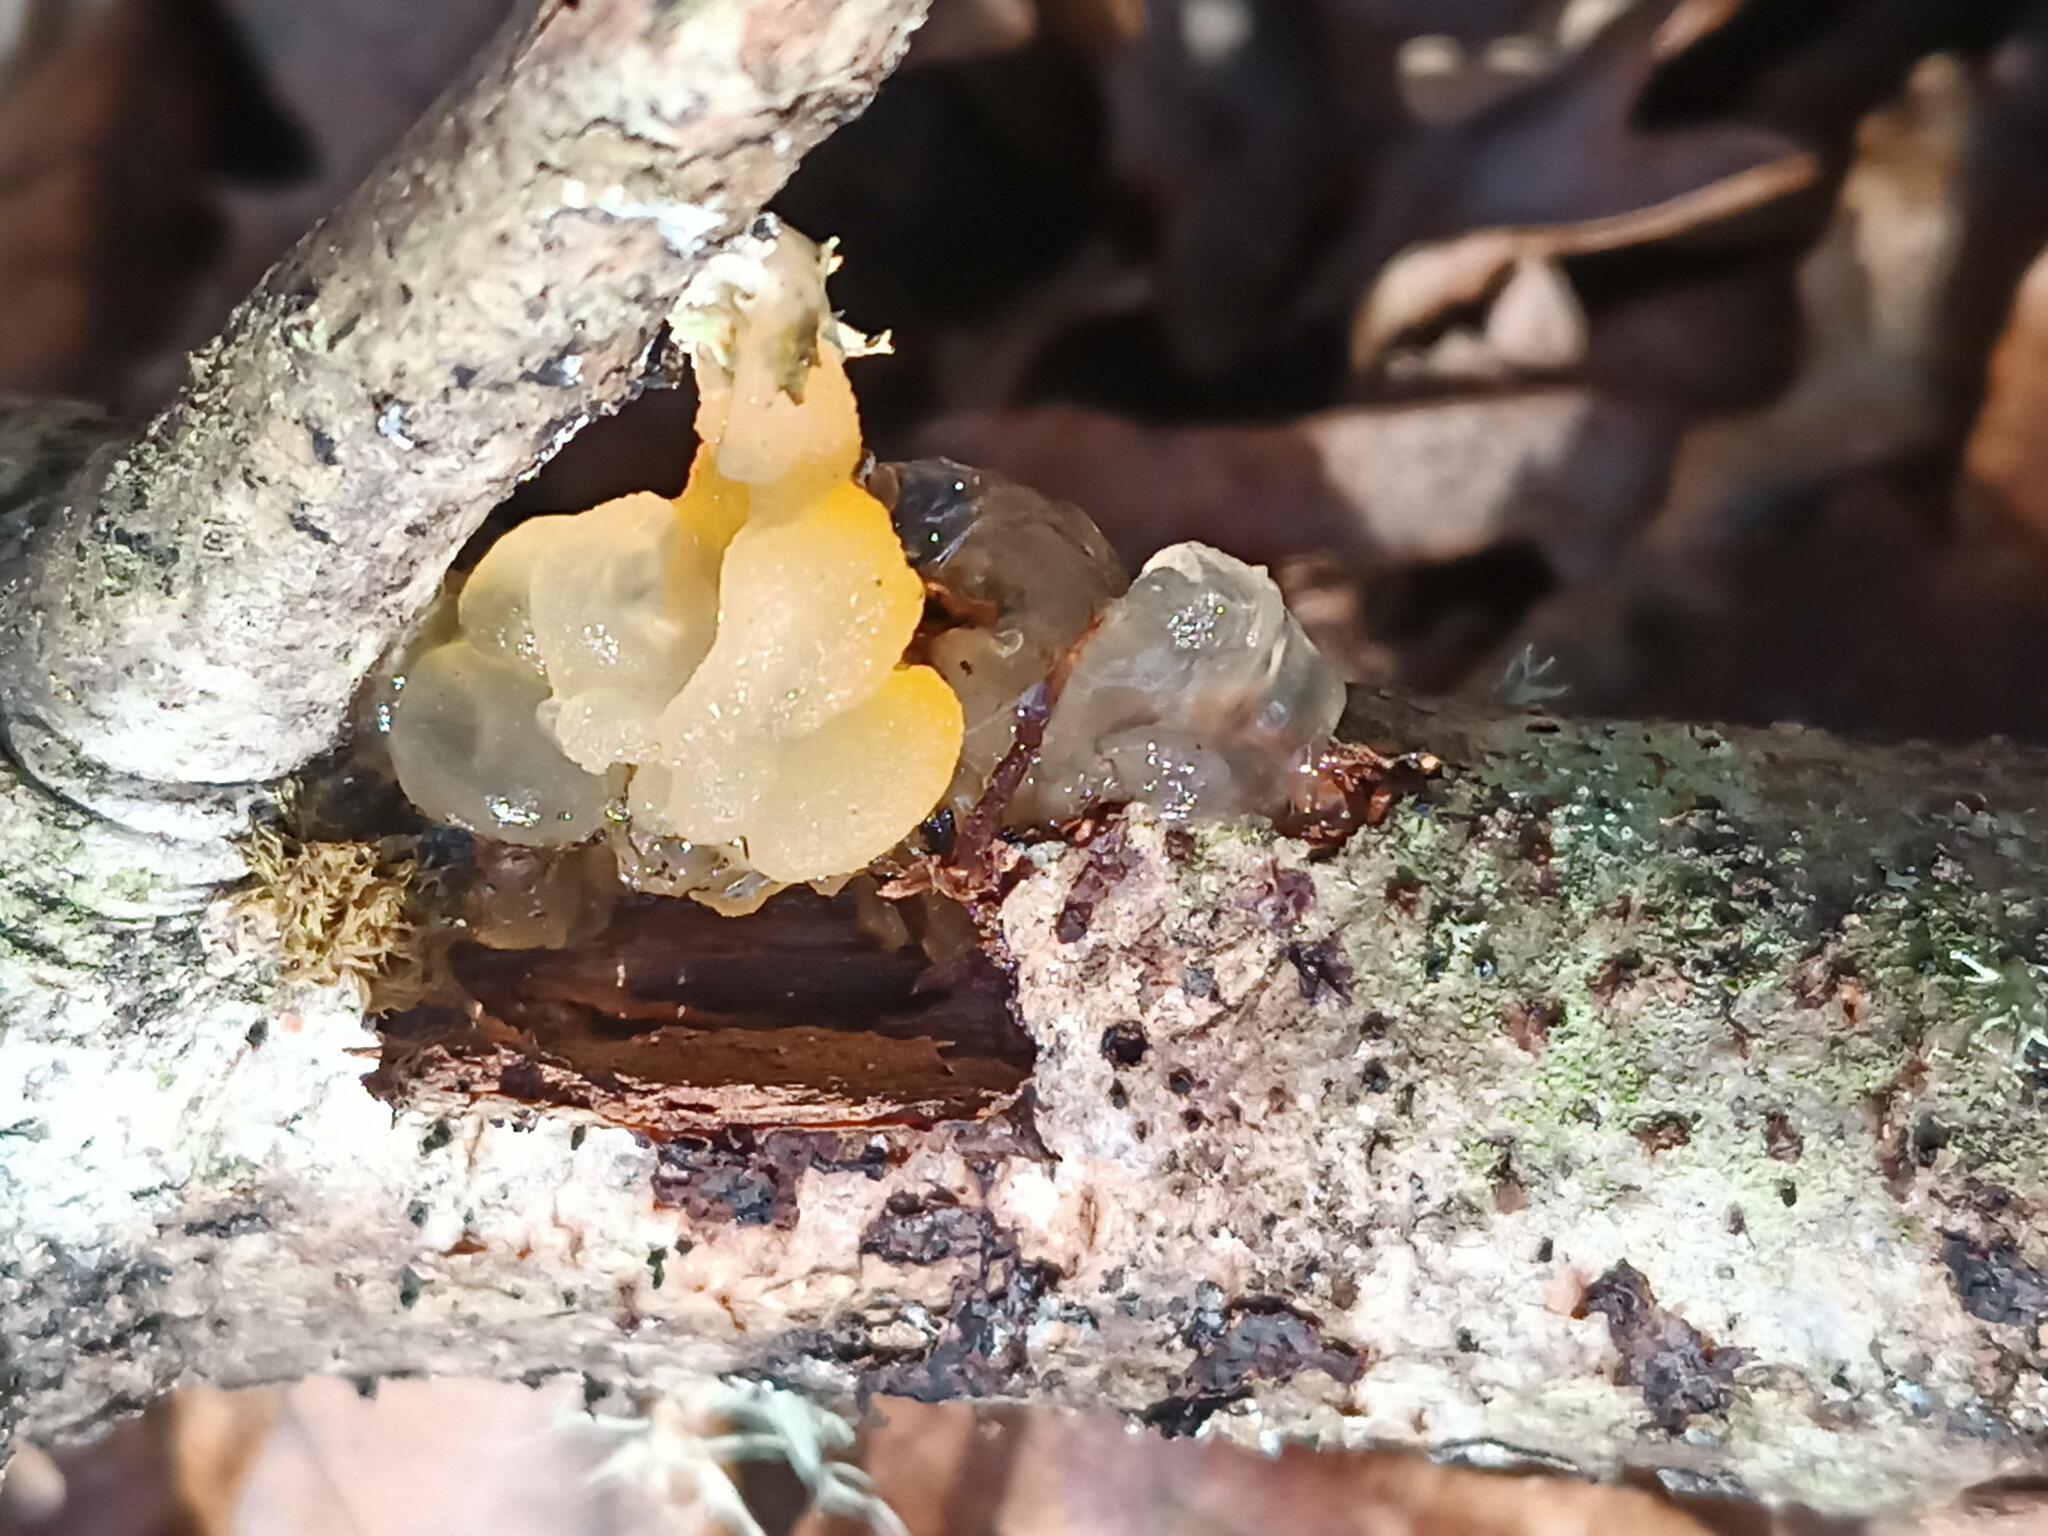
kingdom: Fungi
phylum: Basidiomycota
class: Tremellomycetes
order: Tremellales
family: Tremellaceae
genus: Tremella
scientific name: Tremella mesenterica
